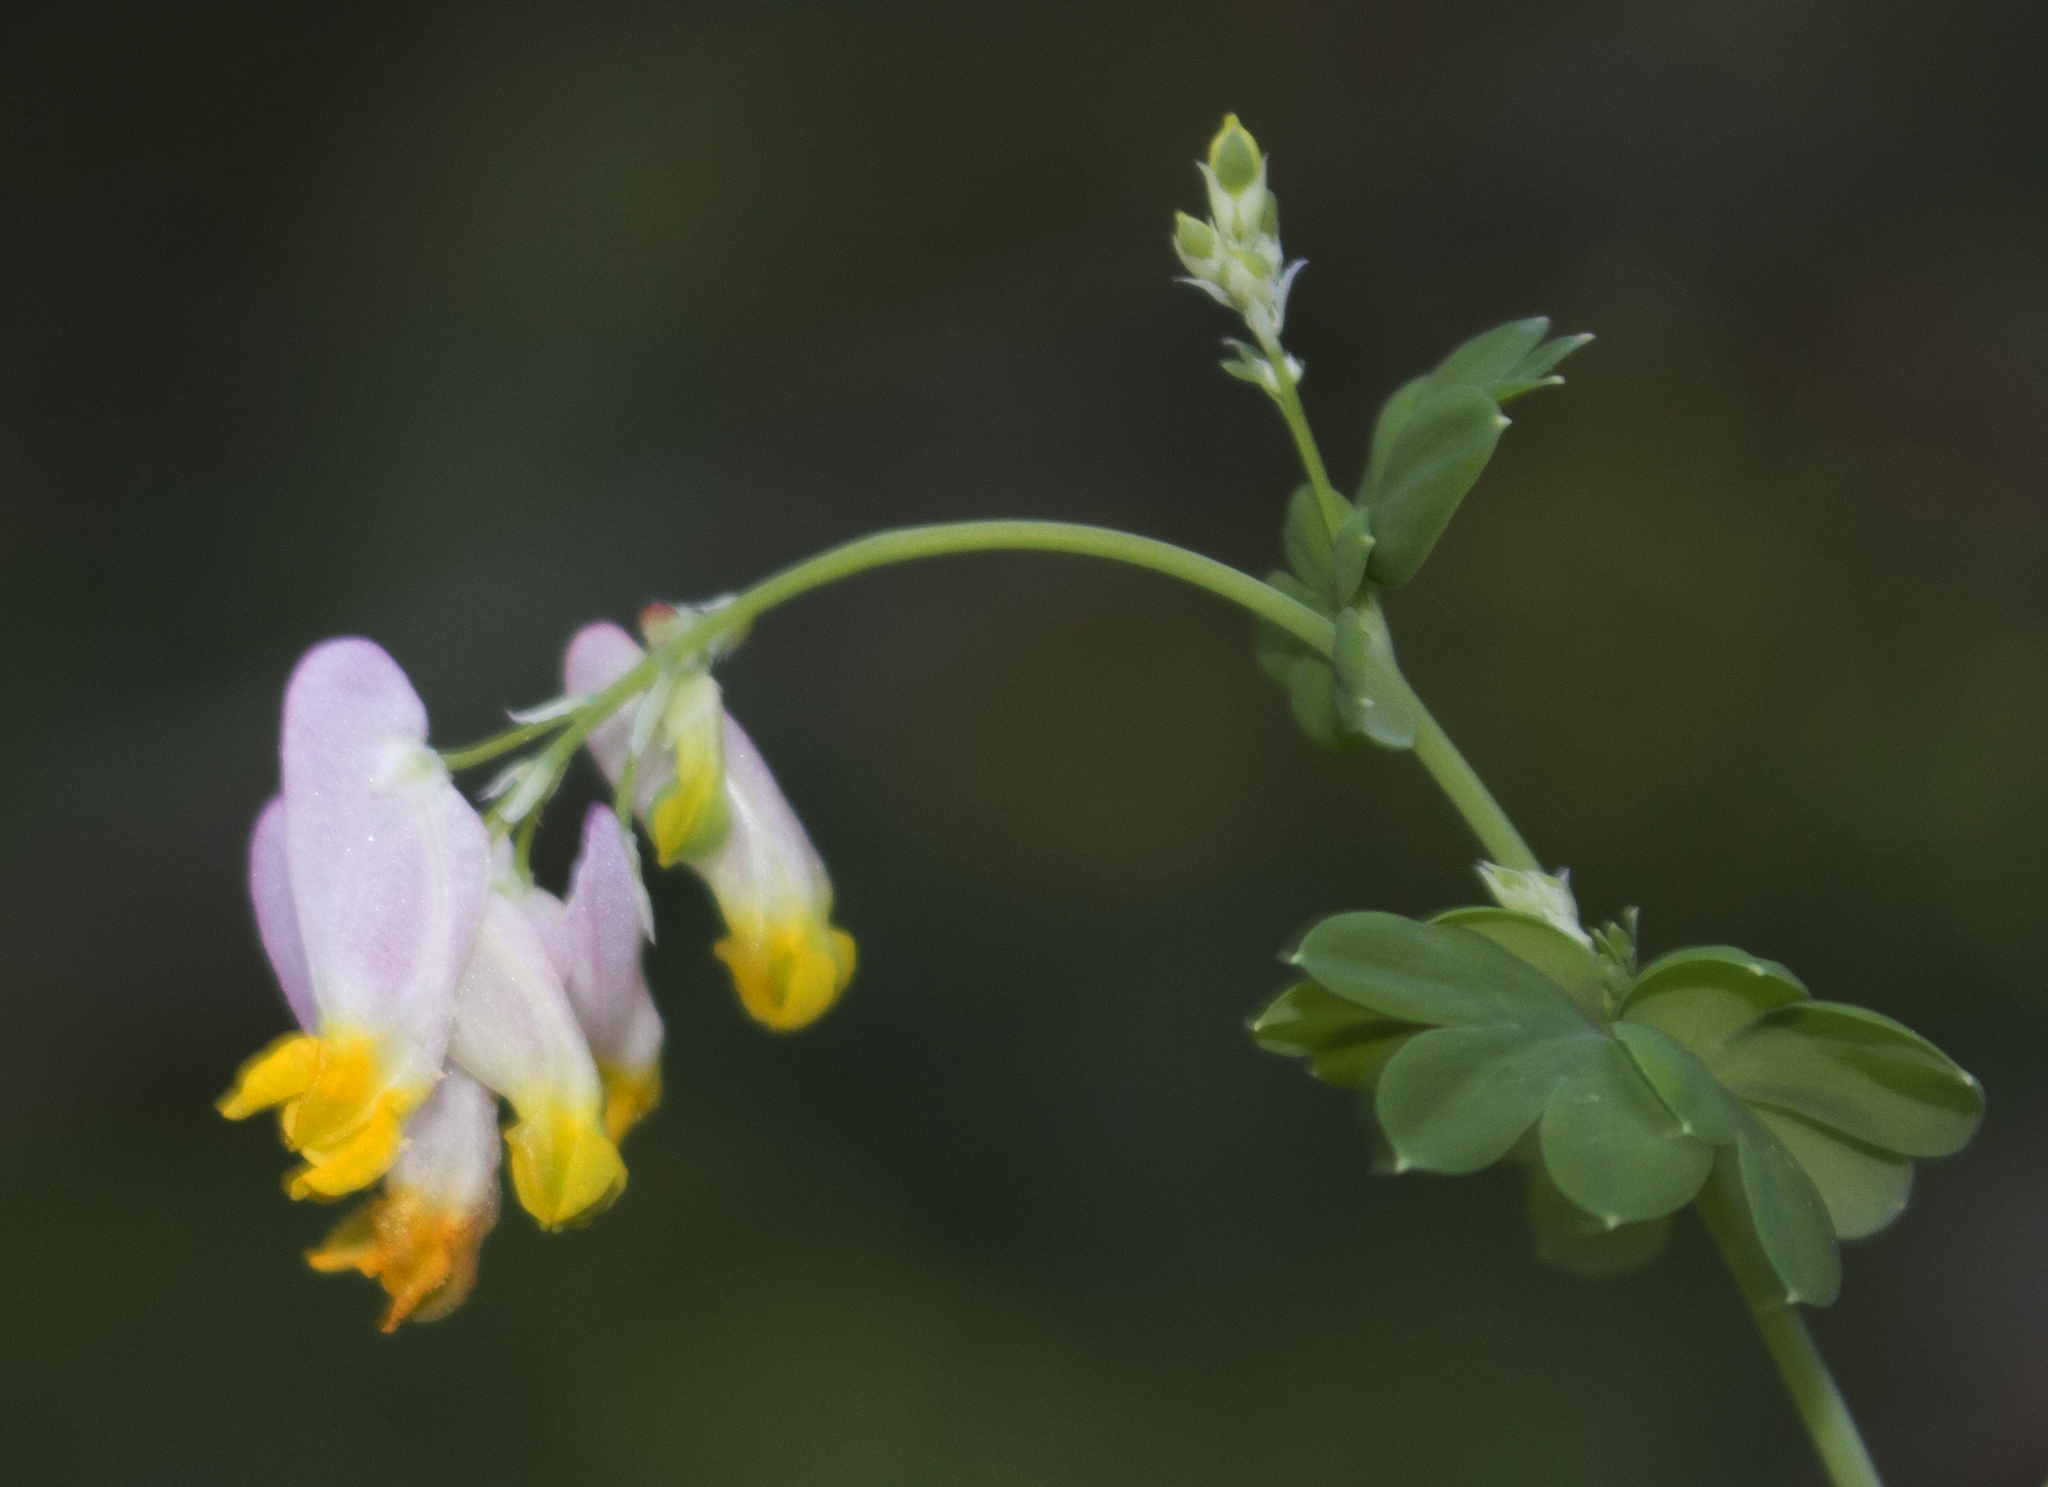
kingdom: Plantae
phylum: Tracheophyta
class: Magnoliopsida
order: Ranunculales
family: Papaveraceae
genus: Capnoides
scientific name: Capnoides sempervirens
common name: Rock harlequin
